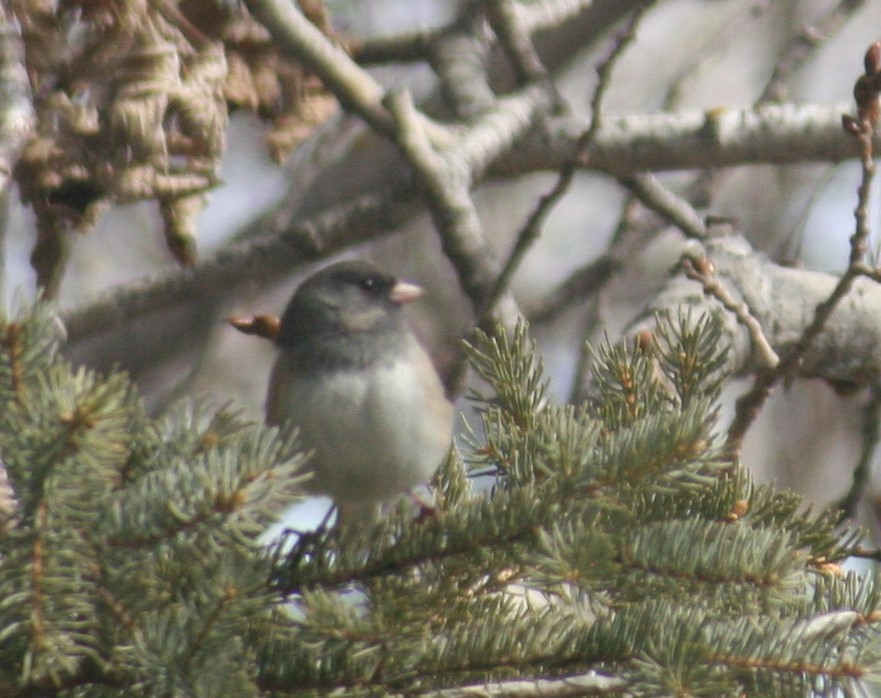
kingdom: Animalia
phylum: Chordata
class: Aves
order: Passeriformes
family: Passerellidae
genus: Junco
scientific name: Junco hyemalis
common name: Dark-eyed junco
